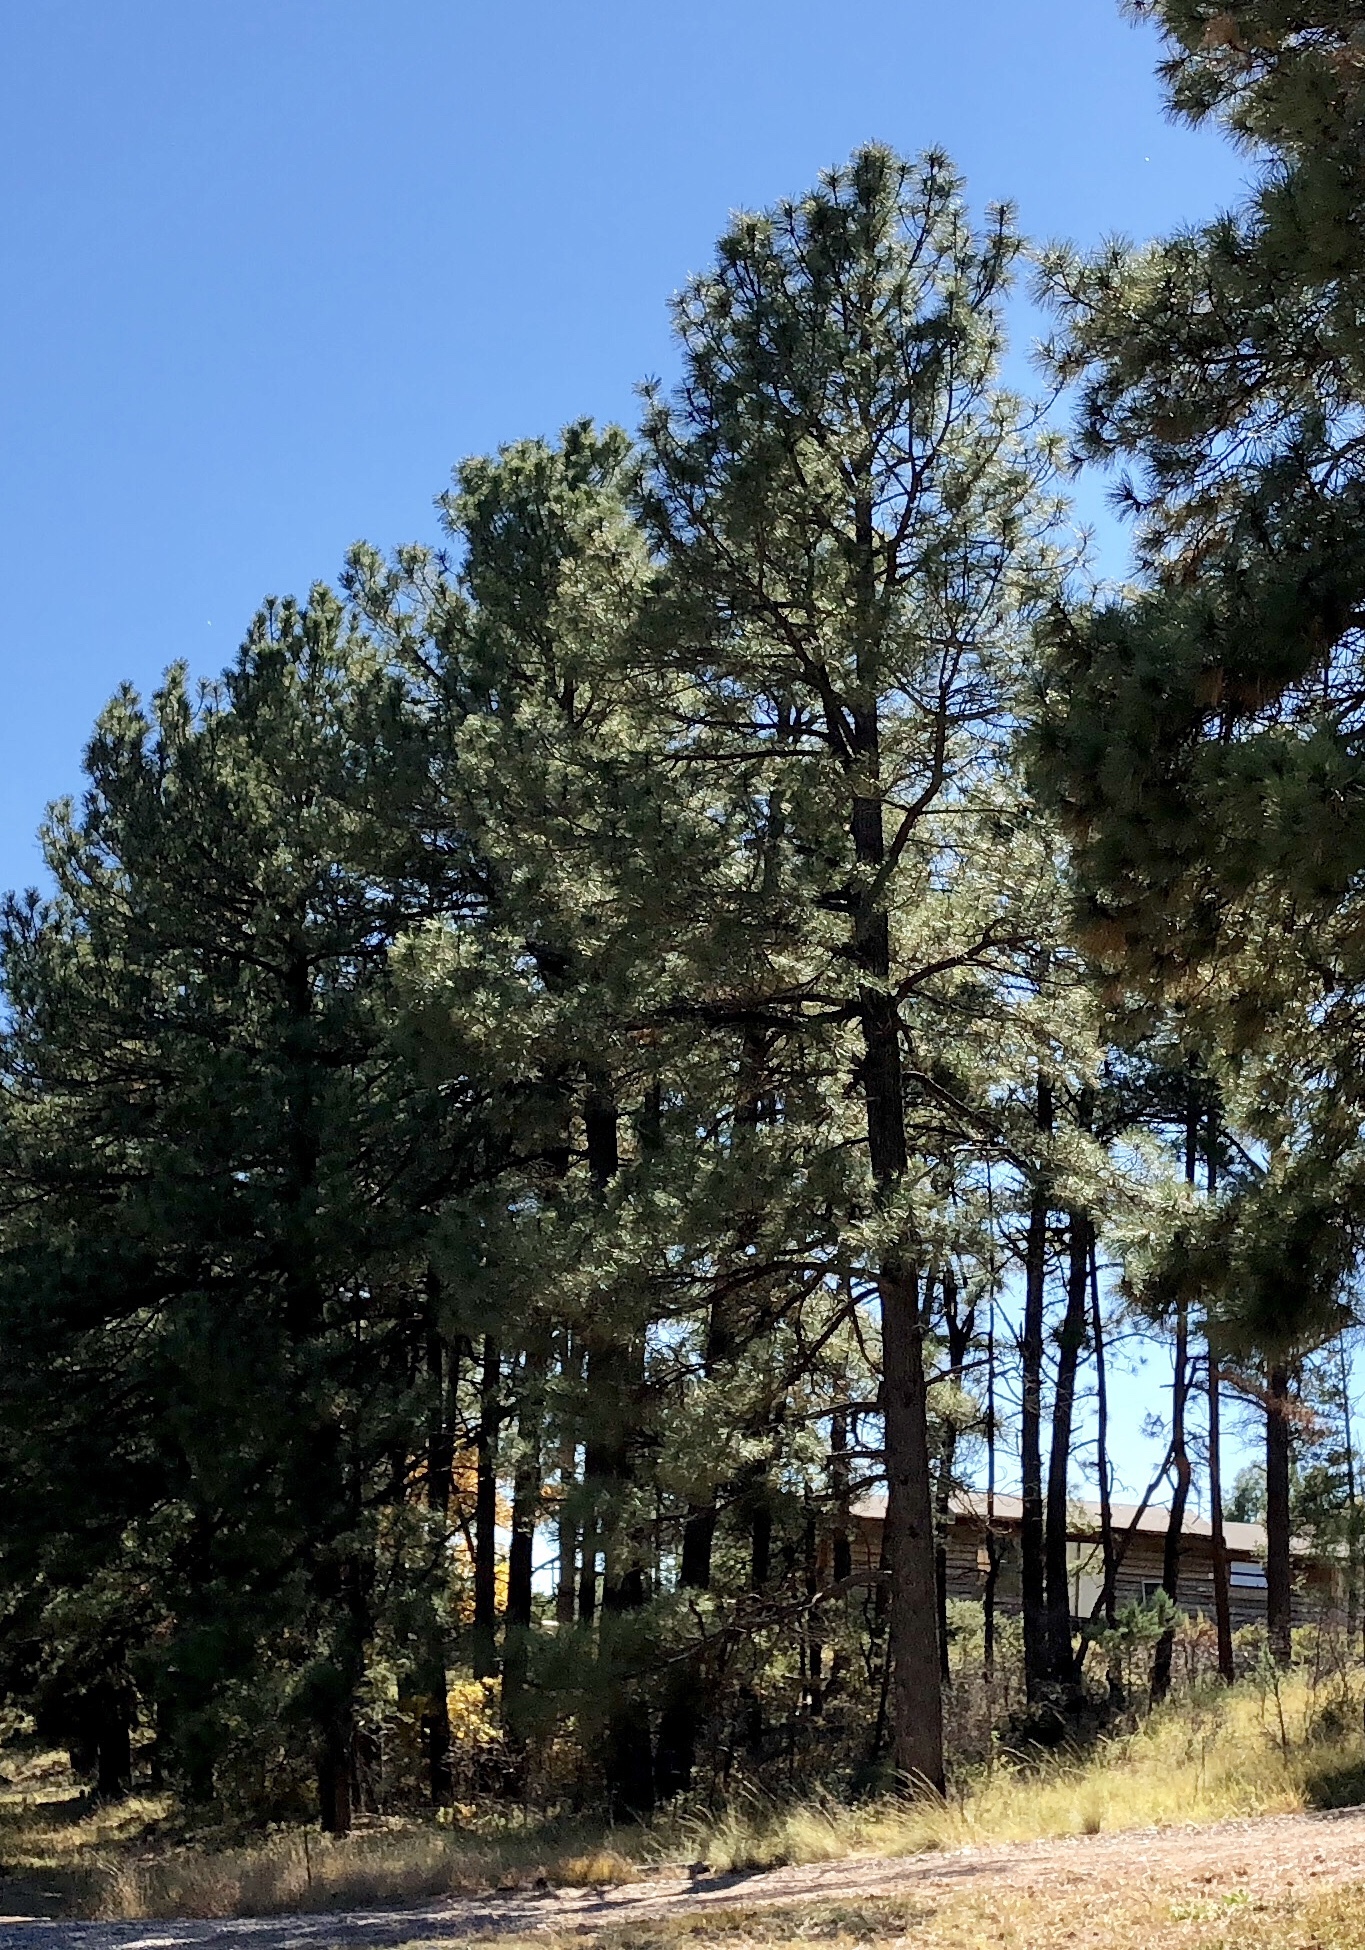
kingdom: Plantae
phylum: Tracheophyta
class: Pinopsida
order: Pinales
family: Pinaceae
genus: Pinus
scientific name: Pinus ponderosa
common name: Western yellow-pine
